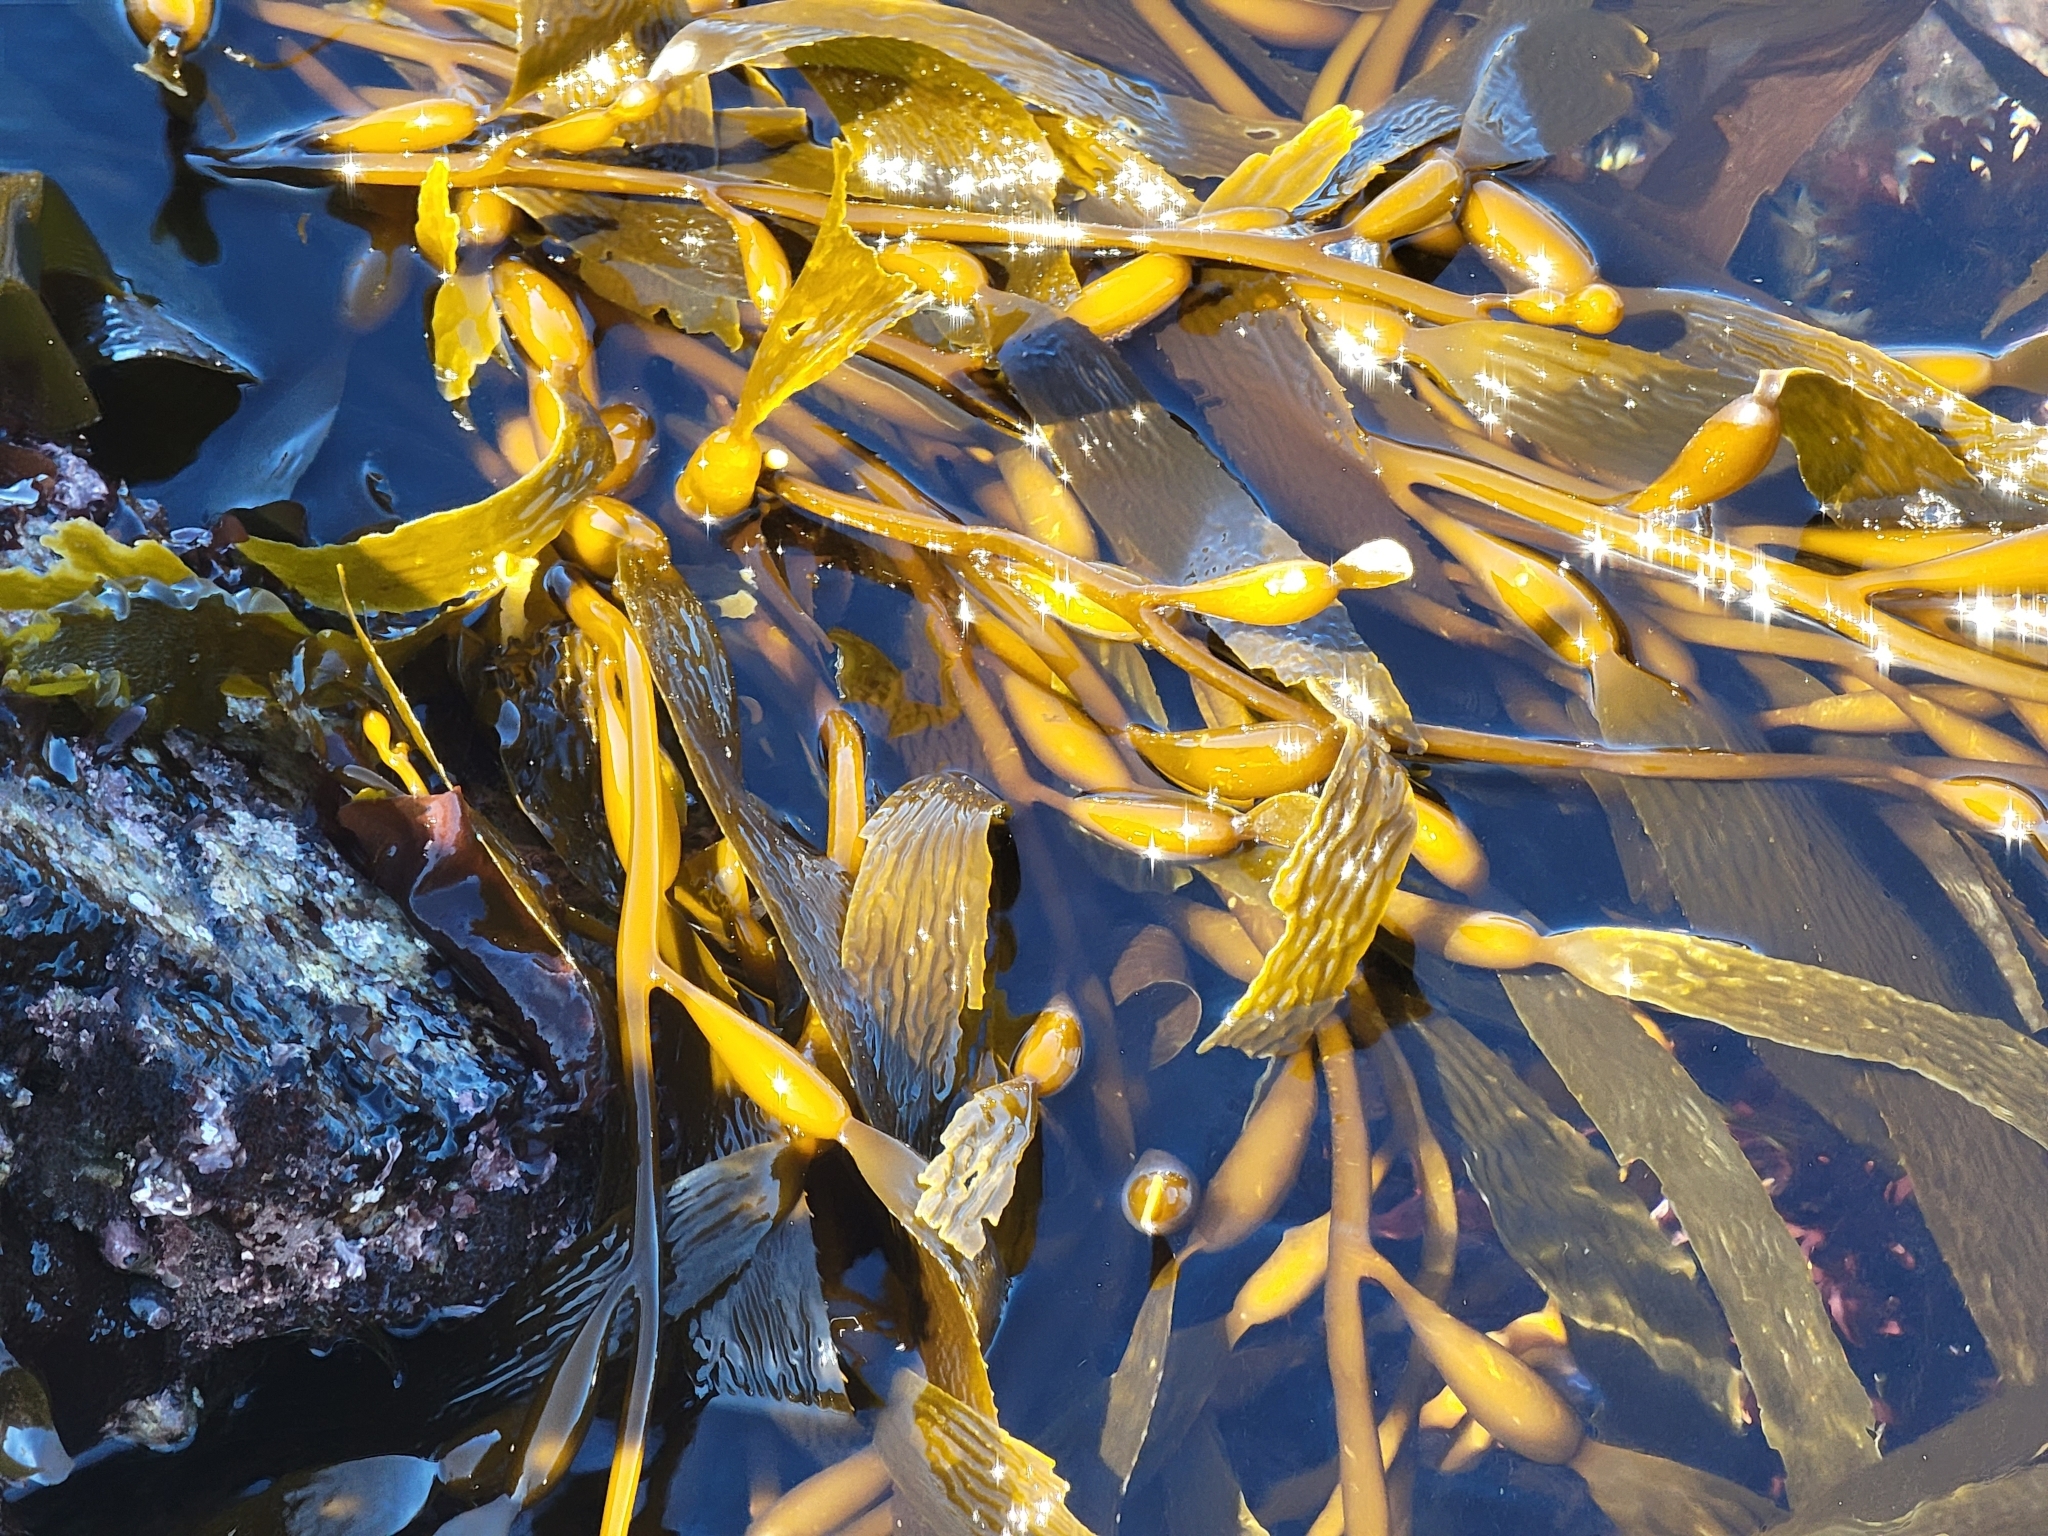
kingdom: Chromista
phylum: Ochrophyta
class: Phaeophyceae
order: Laminariales
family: Laminariaceae
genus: Macrocystis
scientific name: Macrocystis pyrifera
